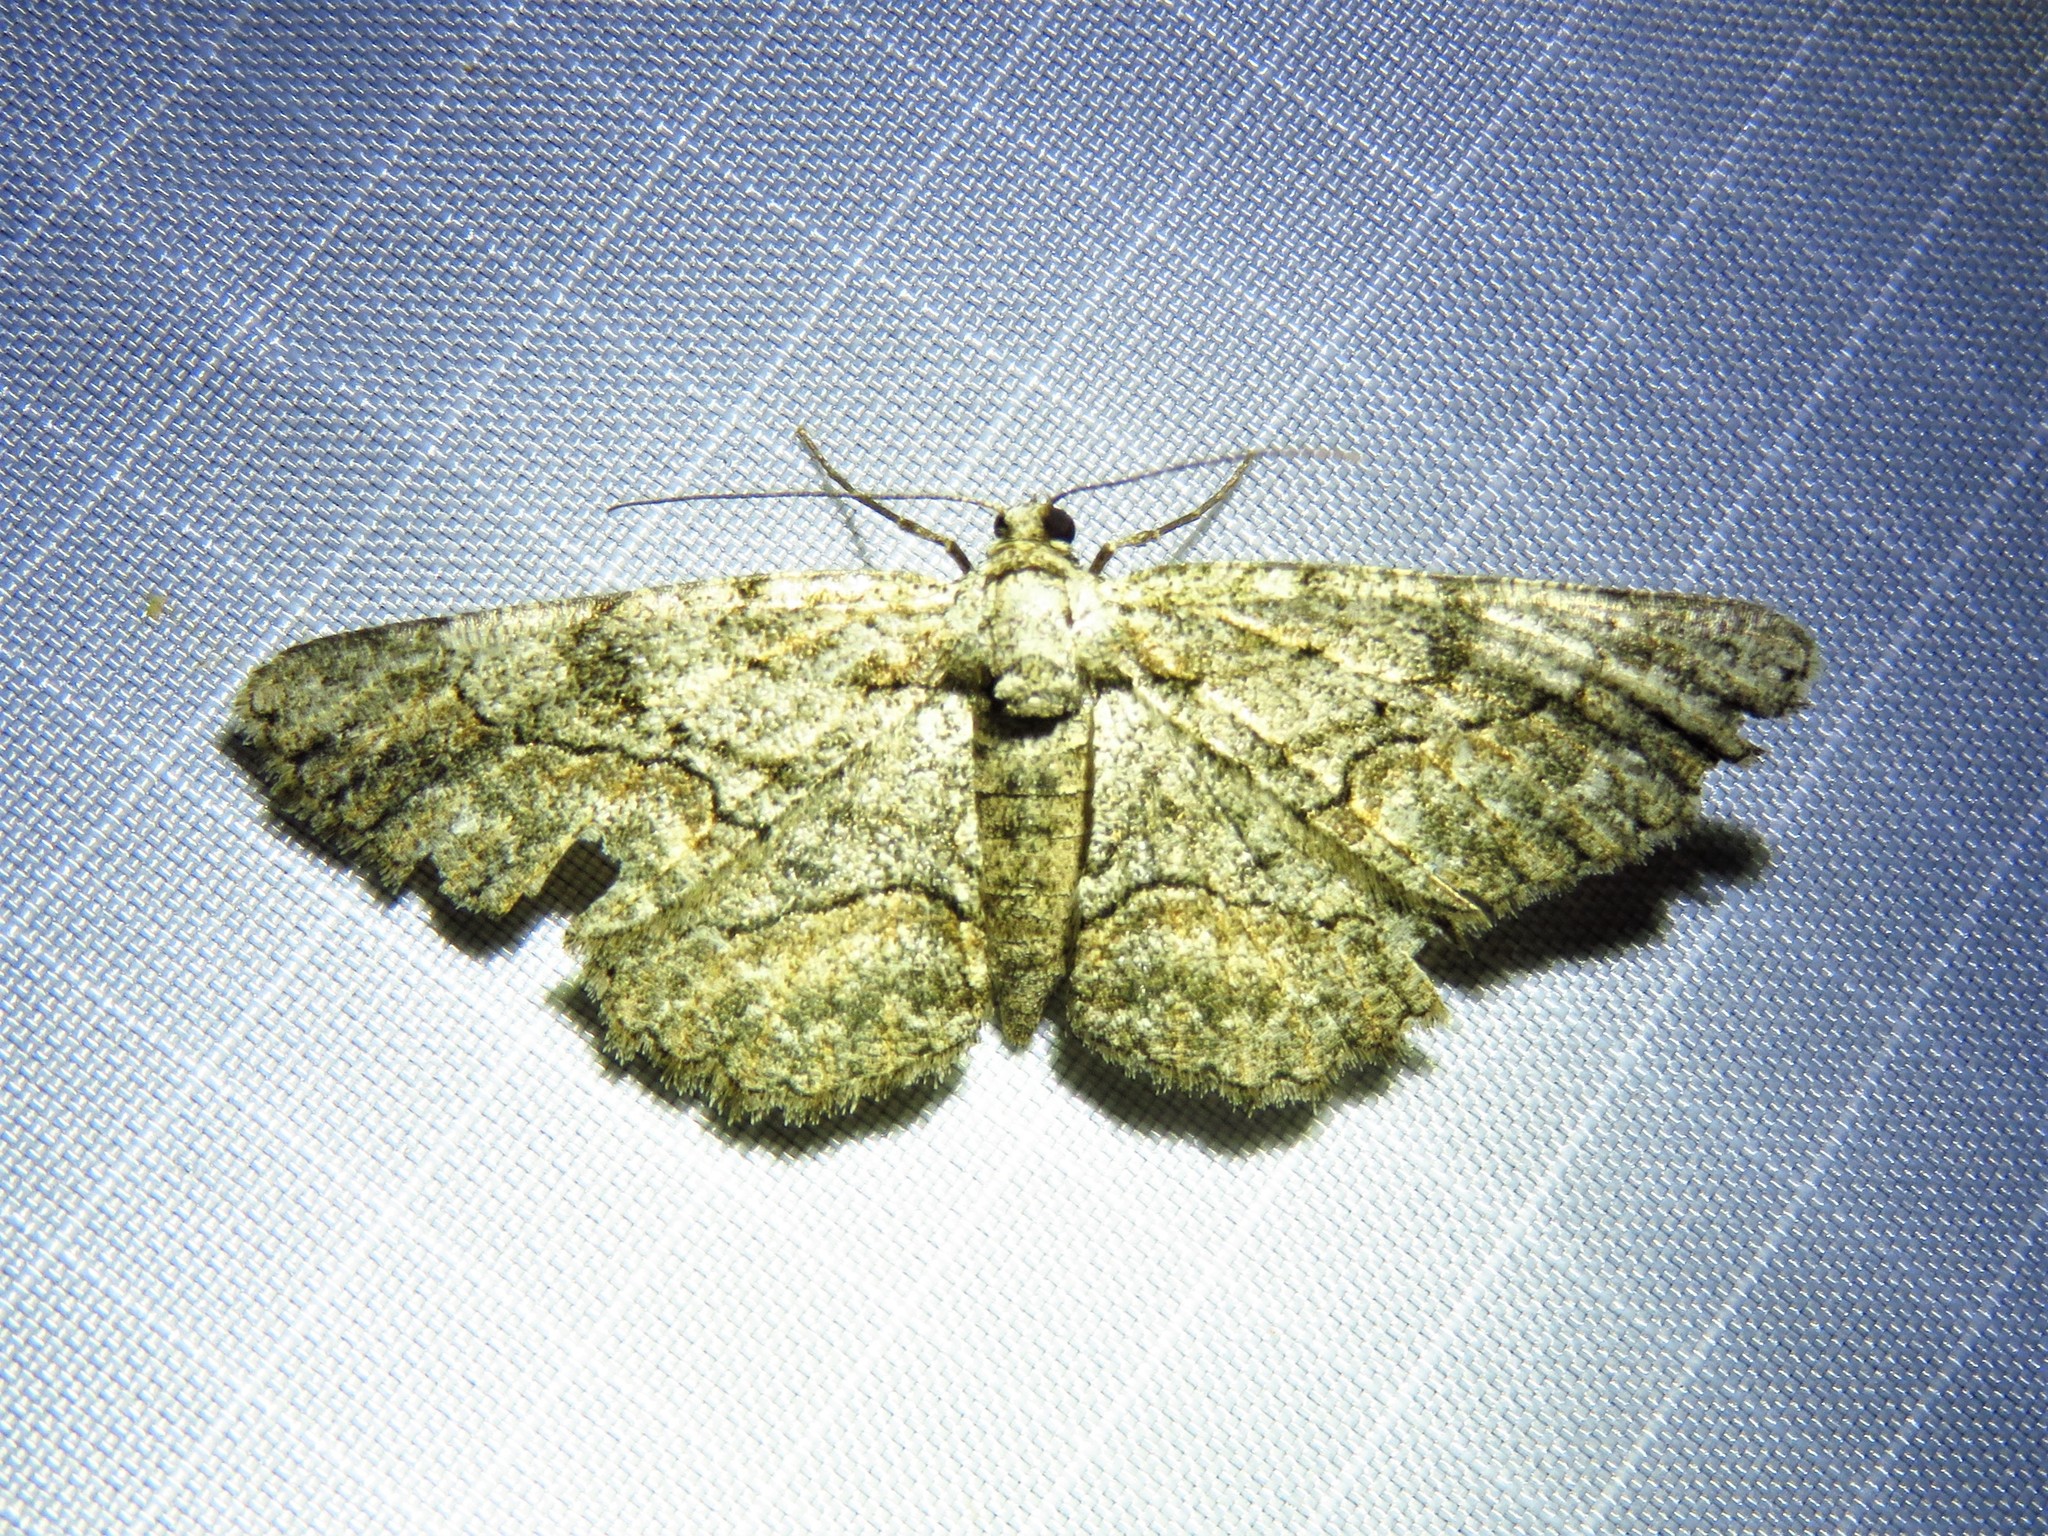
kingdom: Animalia
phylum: Arthropoda
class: Insecta
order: Lepidoptera
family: Geometridae
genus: Anavitrinella
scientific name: Anavitrinella pampinaria
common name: Common gray
